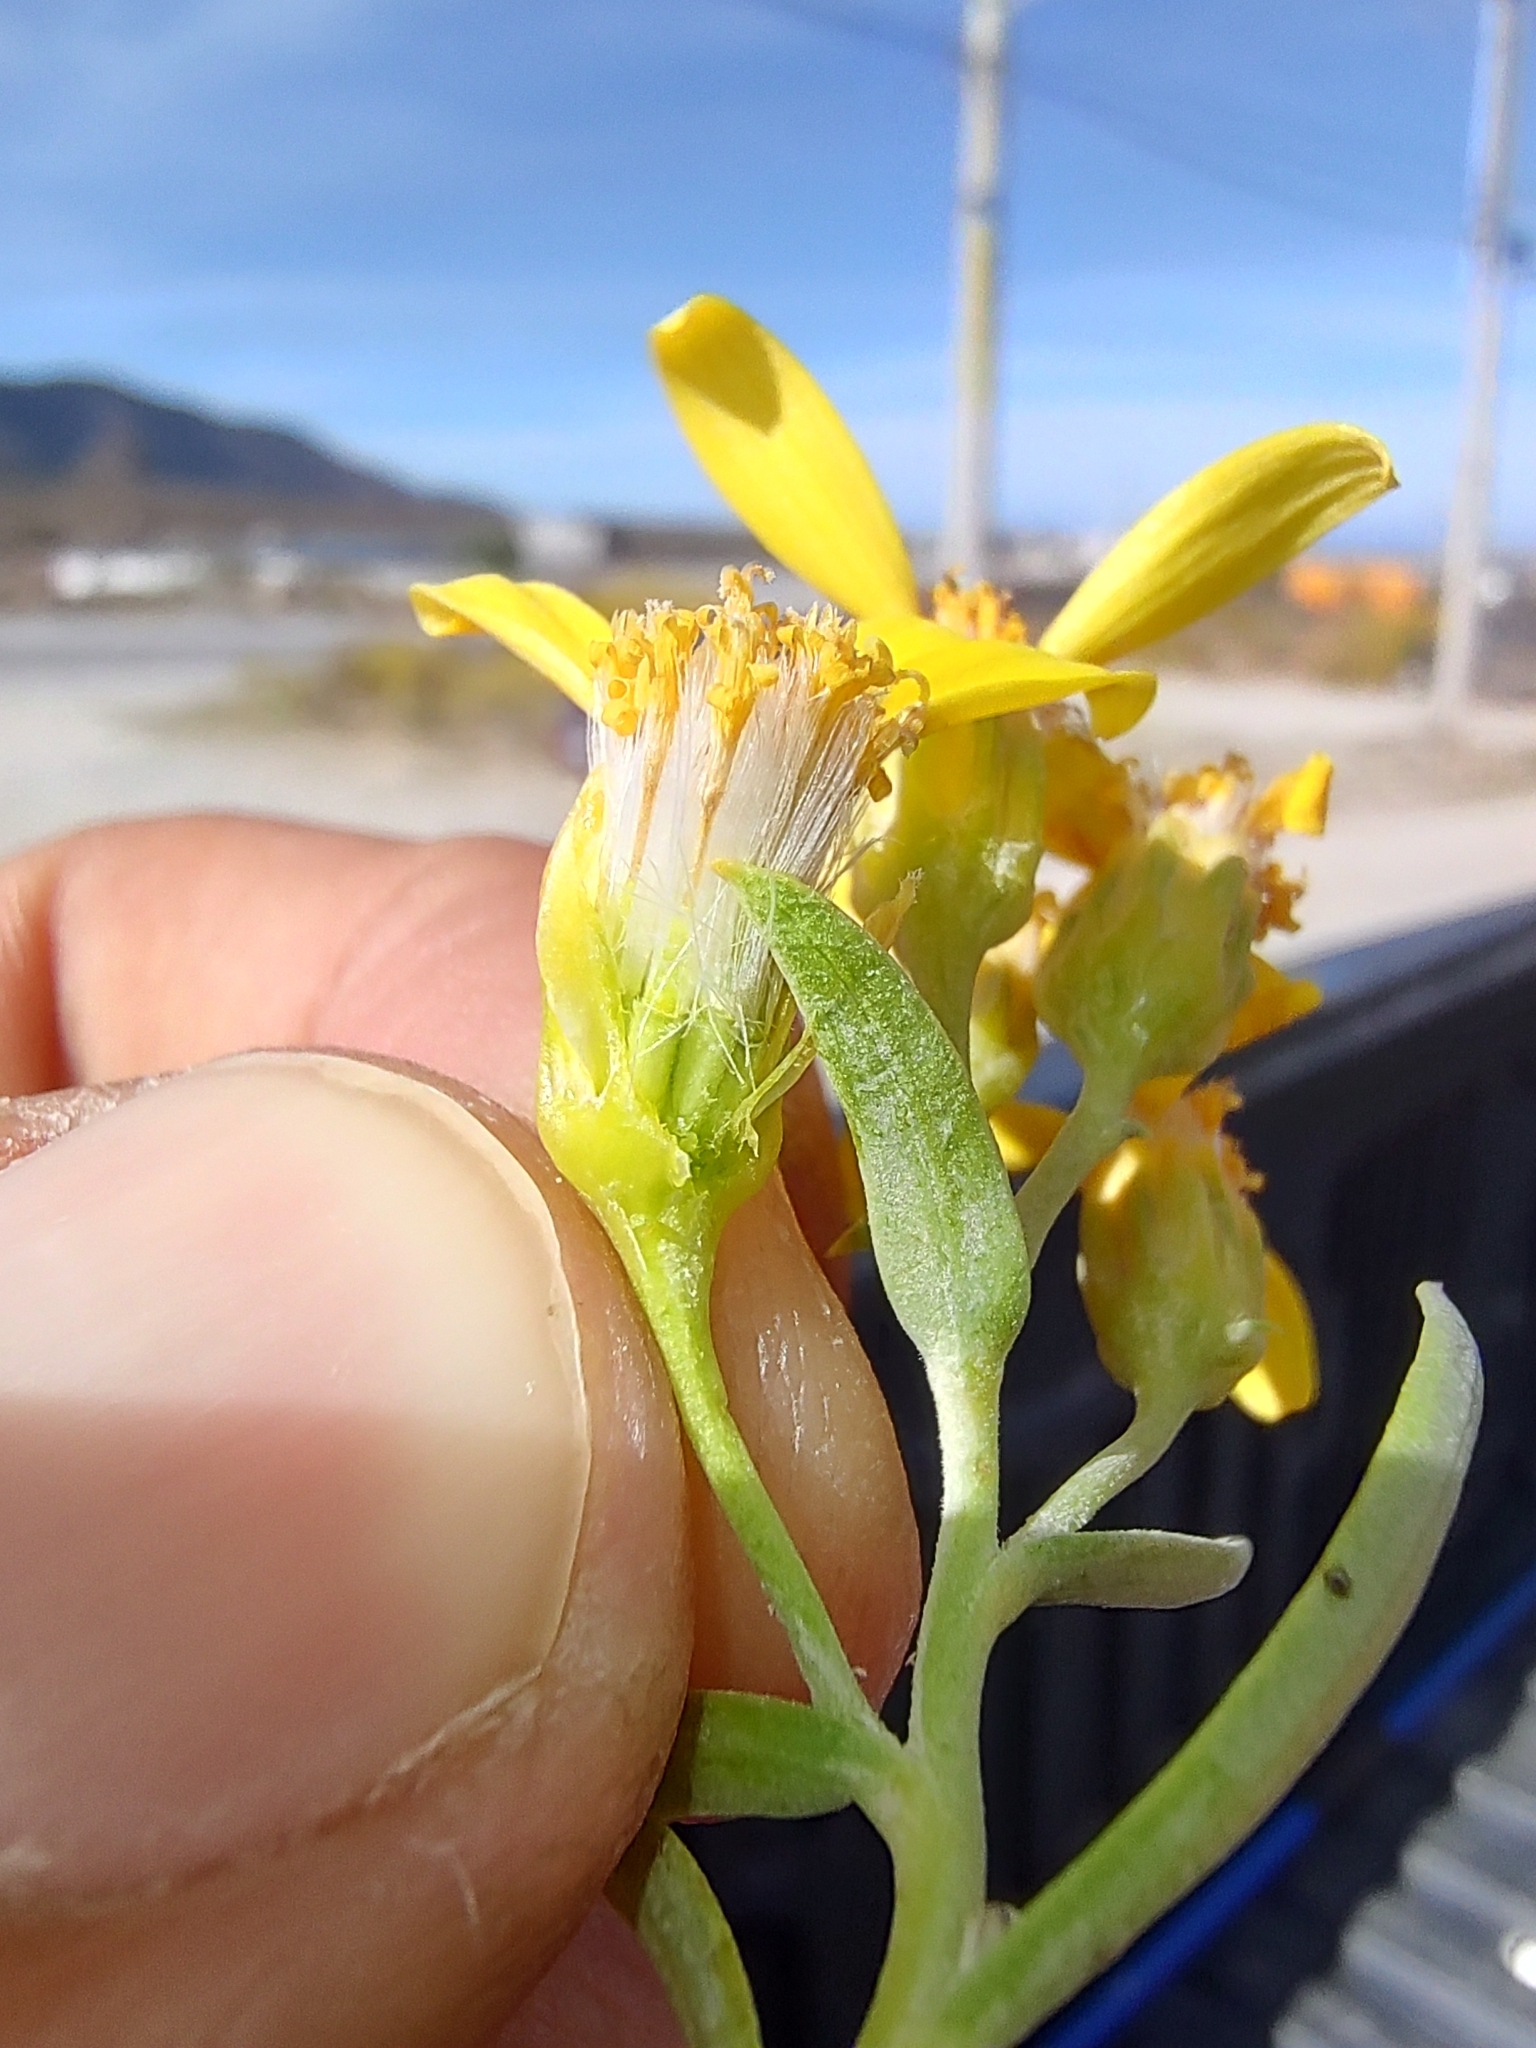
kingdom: Plantae
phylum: Tracheophyta
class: Magnoliopsida
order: Asterales
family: Asteraceae
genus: Barkleyanthus
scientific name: Barkleyanthus salicifolius
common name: Willow ragwort
